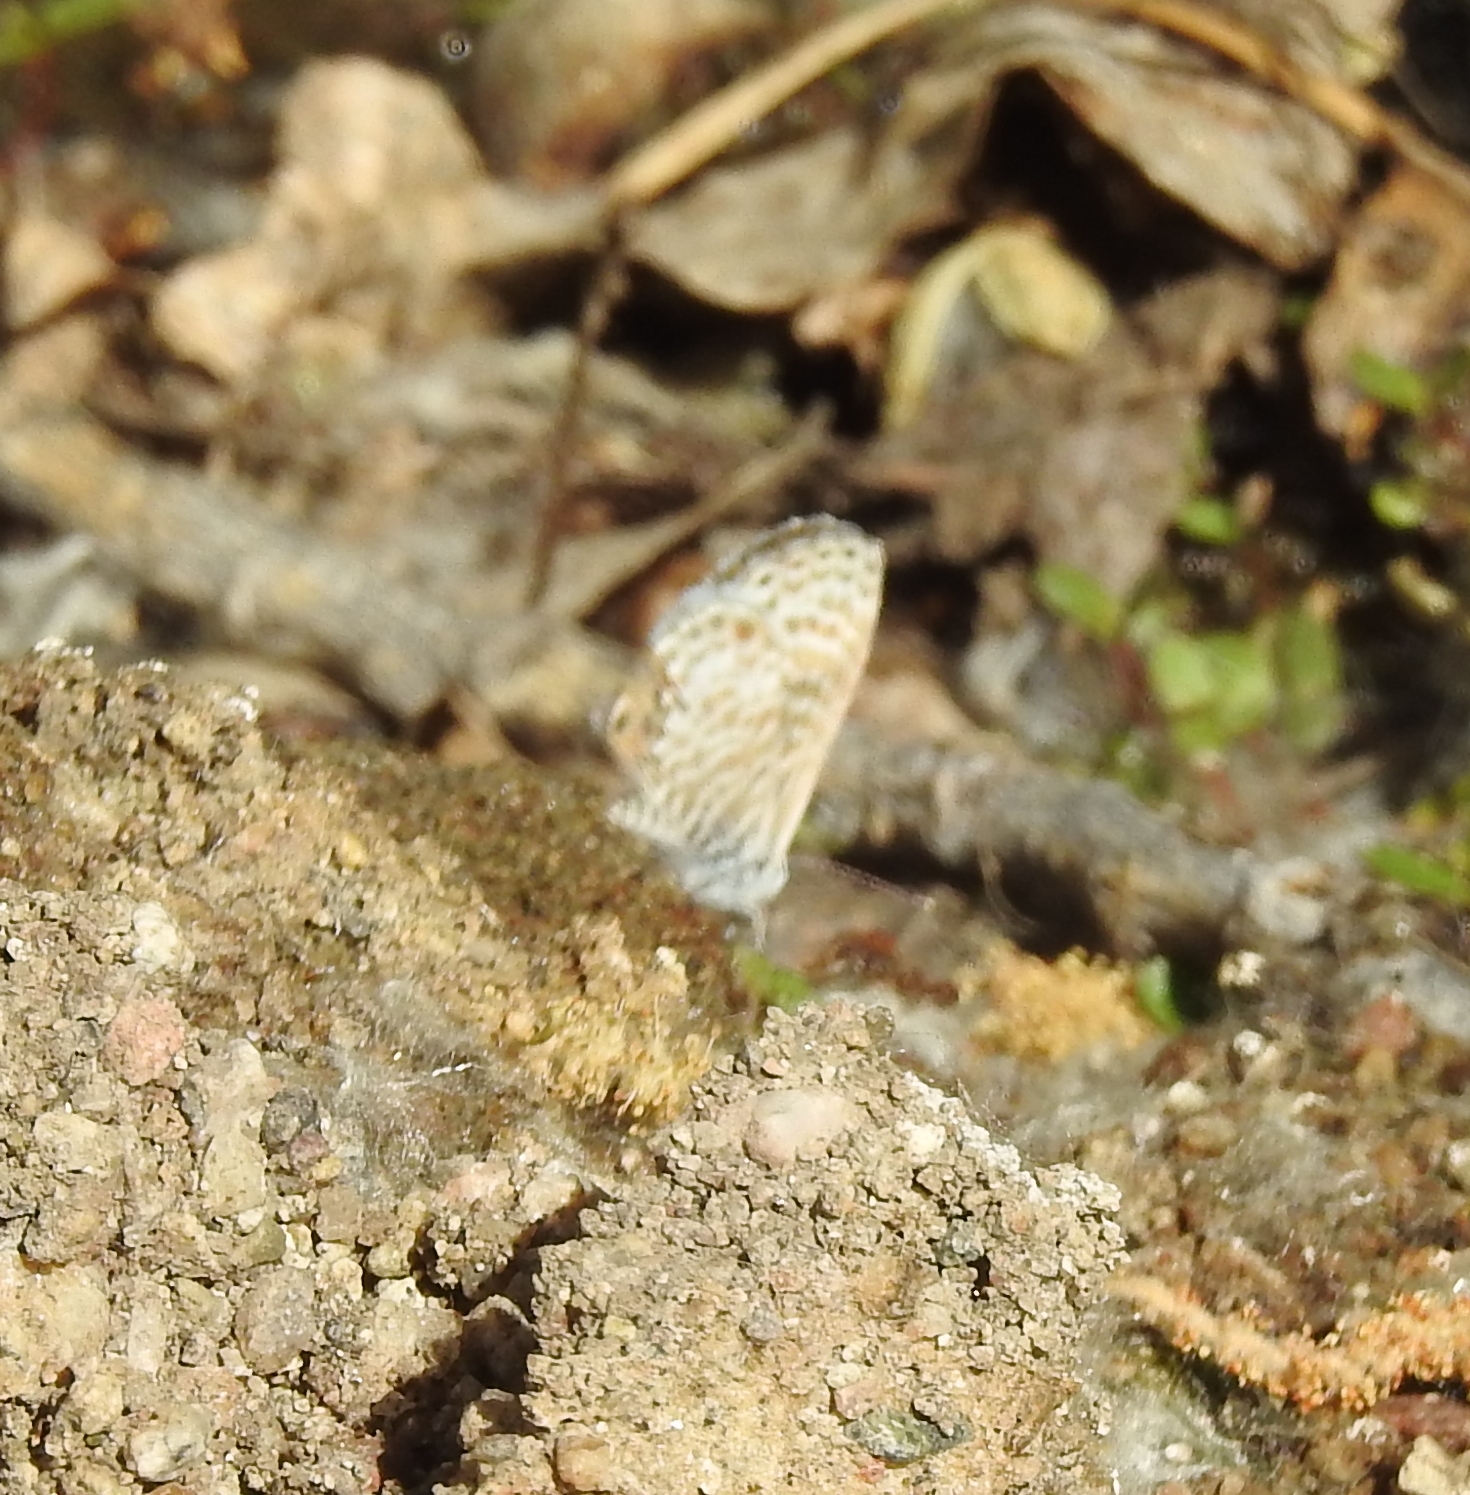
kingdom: Animalia
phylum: Arthropoda
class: Insecta
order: Lepidoptera
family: Lycaenidae
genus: Leptotes
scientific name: Leptotes marina
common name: Marine blue
